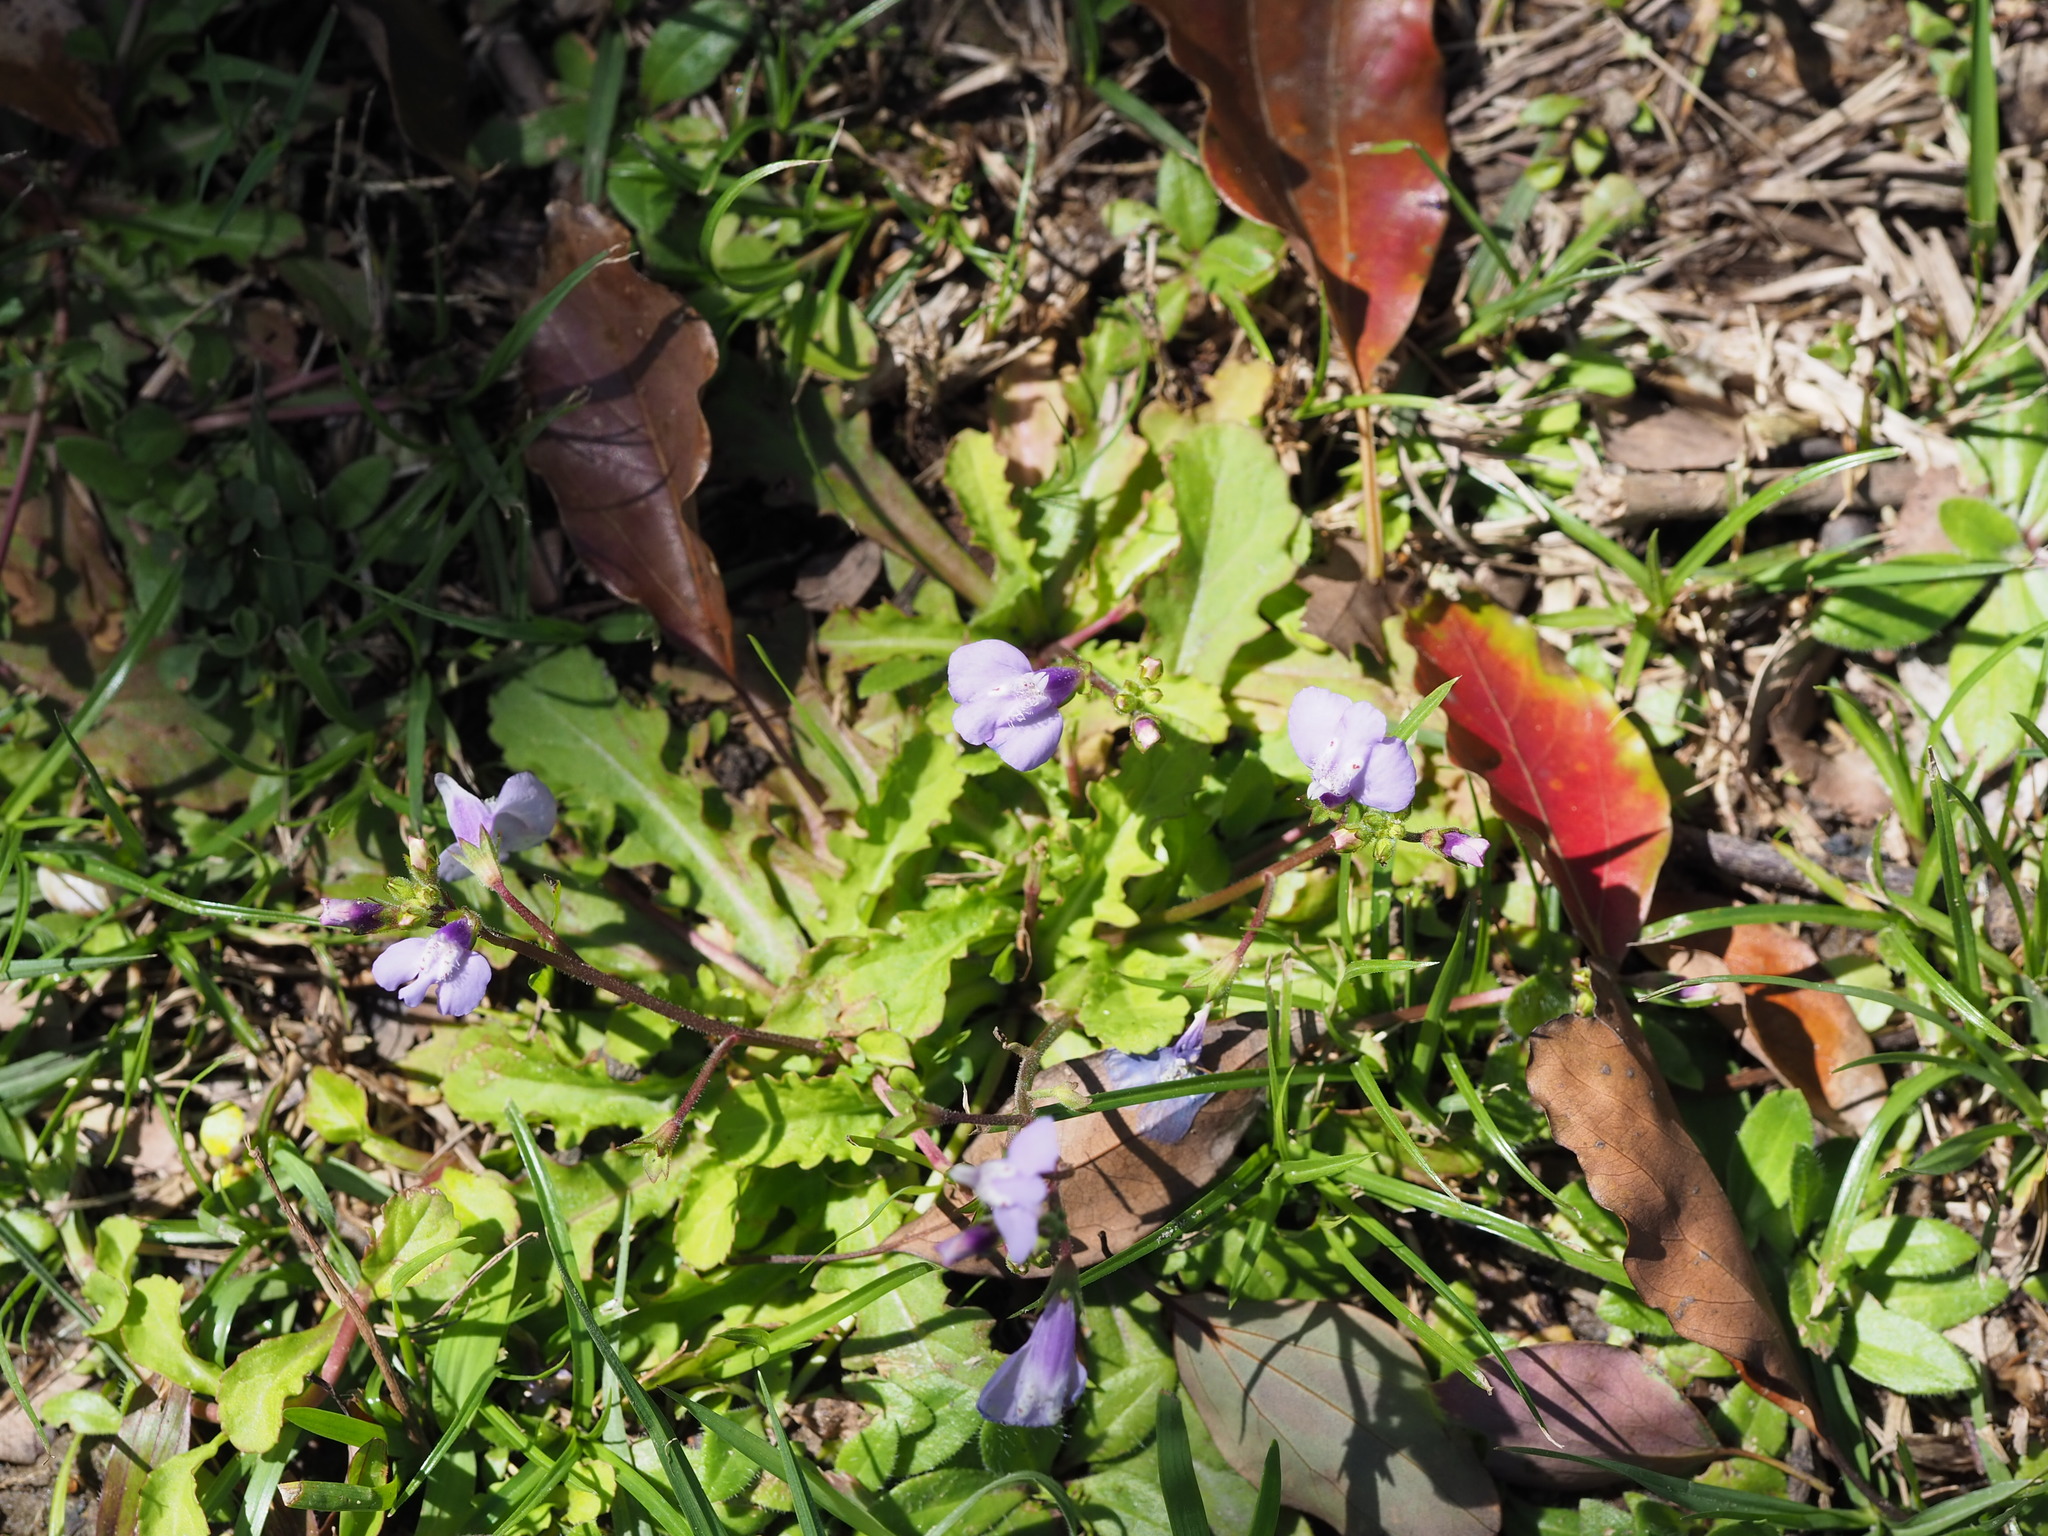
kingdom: Plantae
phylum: Tracheophyta
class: Magnoliopsida
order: Lamiales
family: Mazaceae
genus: Mazus
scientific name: Mazus fauriei
